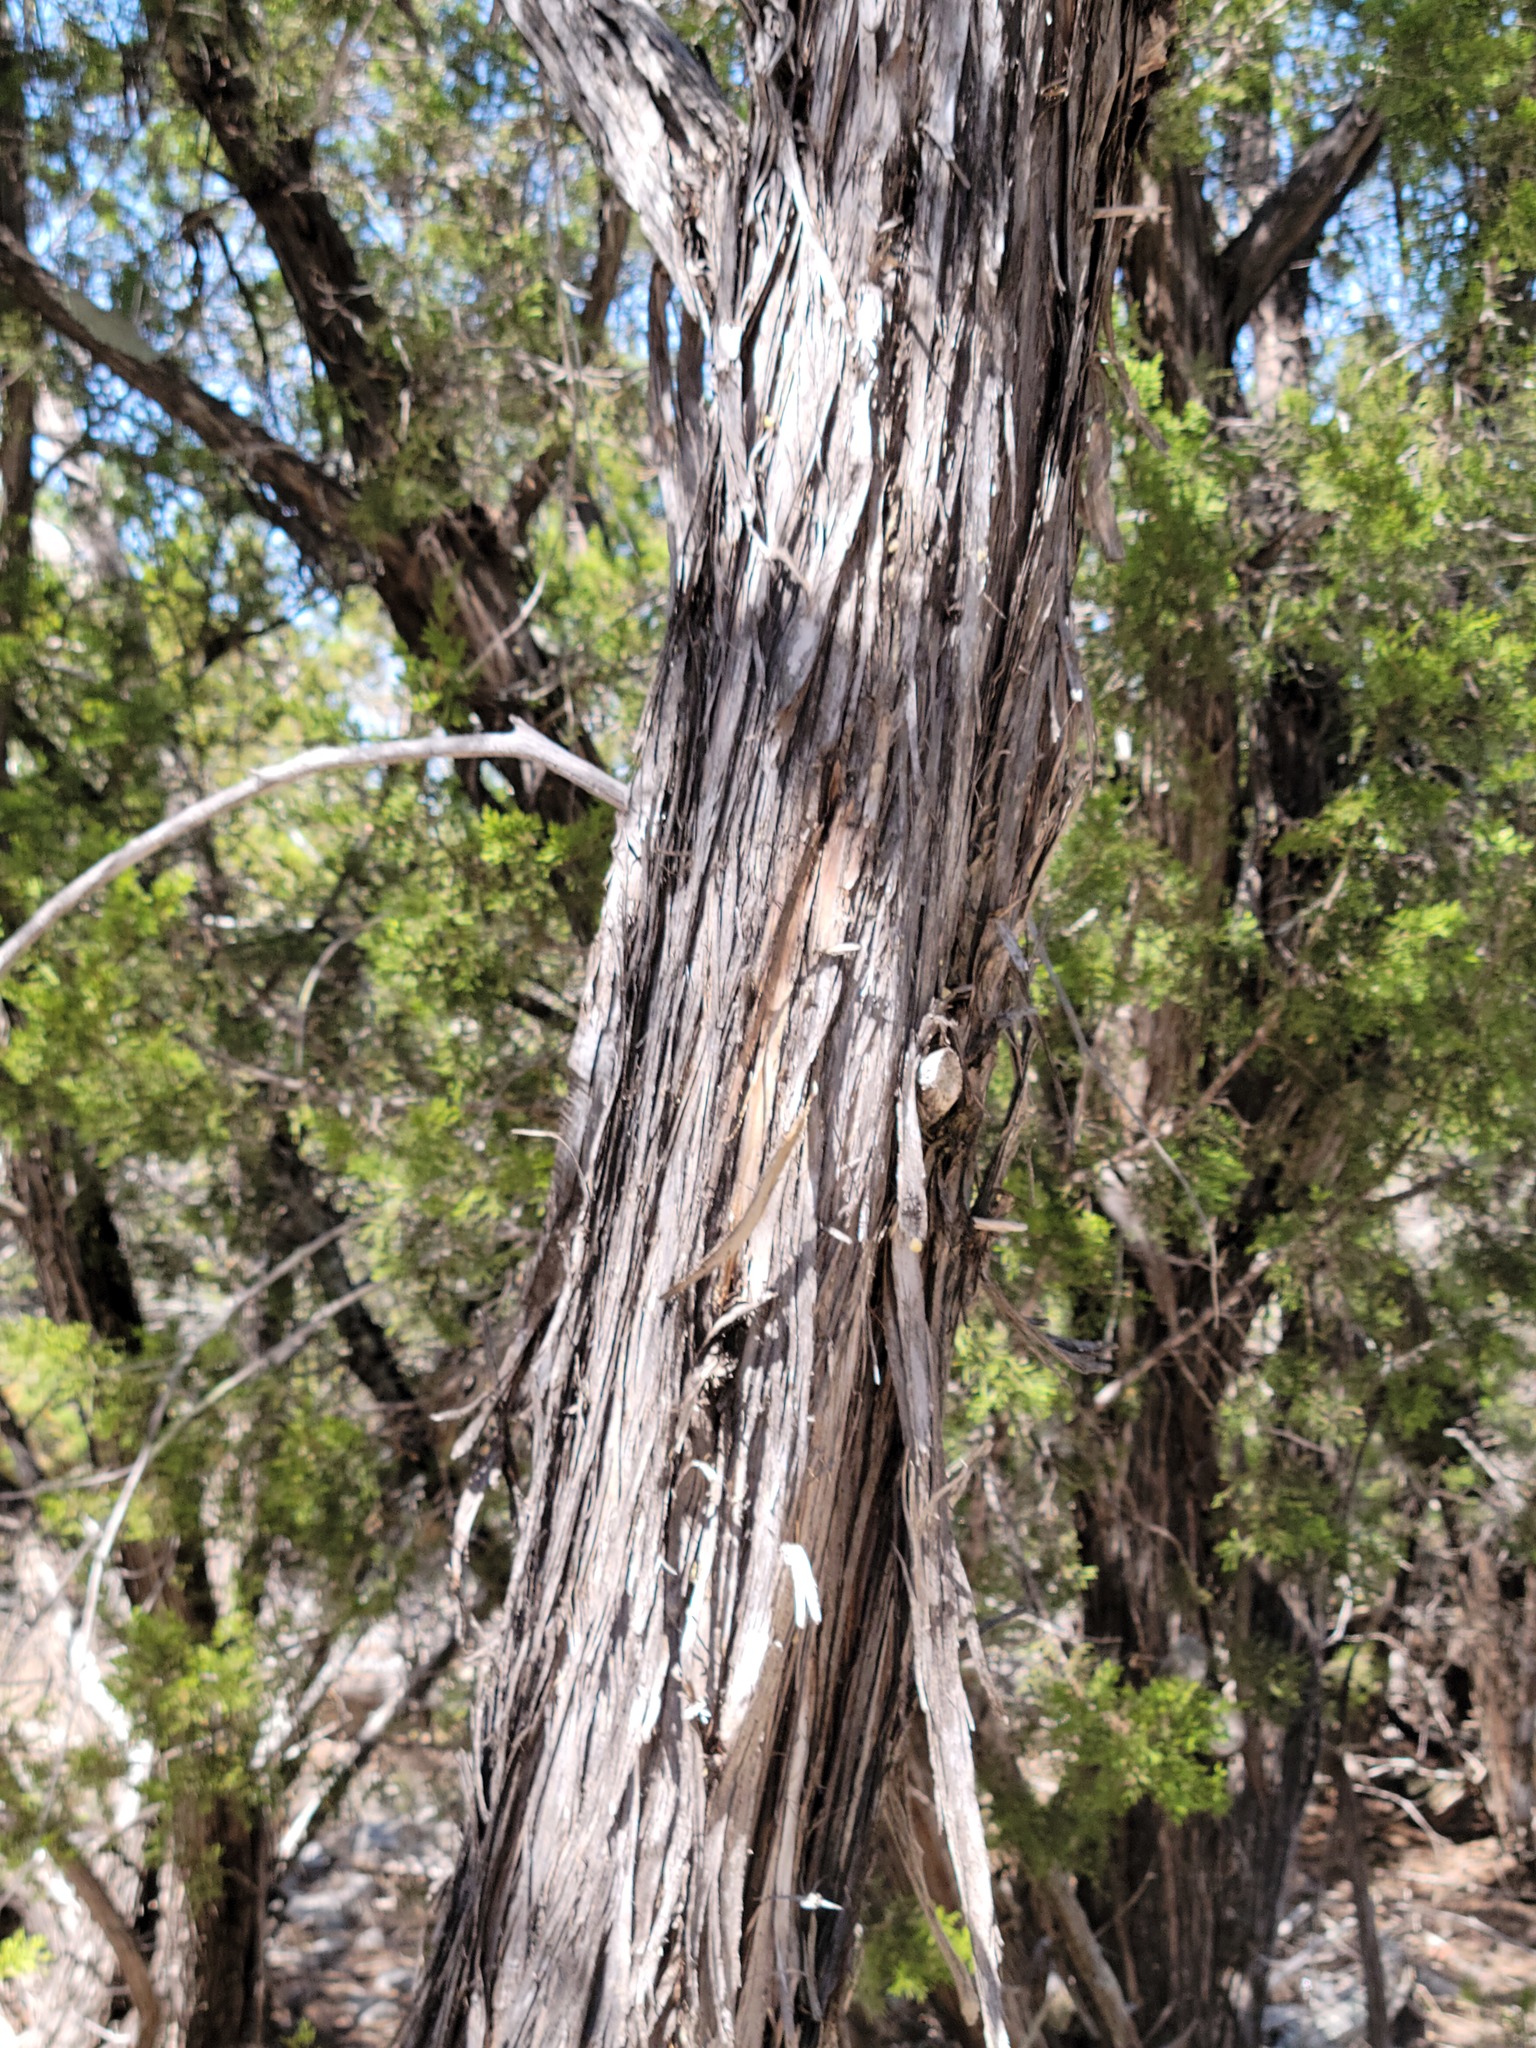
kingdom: Plantae
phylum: Tracheophyta
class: Pinopsida
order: Pinales
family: Cupressaceae
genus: Juniperus
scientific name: Juniperus ashei
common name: Mexican juniper
